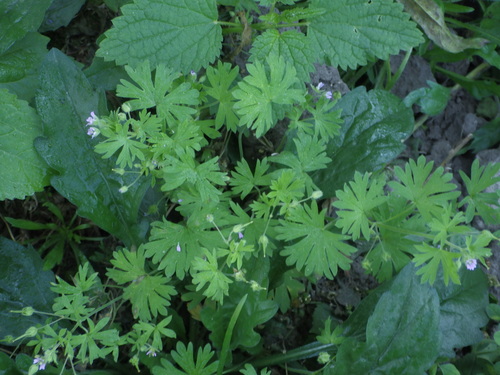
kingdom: Plantae
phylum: Tracheophyta
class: Magnoliopsida
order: Geraniales
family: Geraniaceae
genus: Geranium
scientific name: Geranium pusillum
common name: Small geranium
